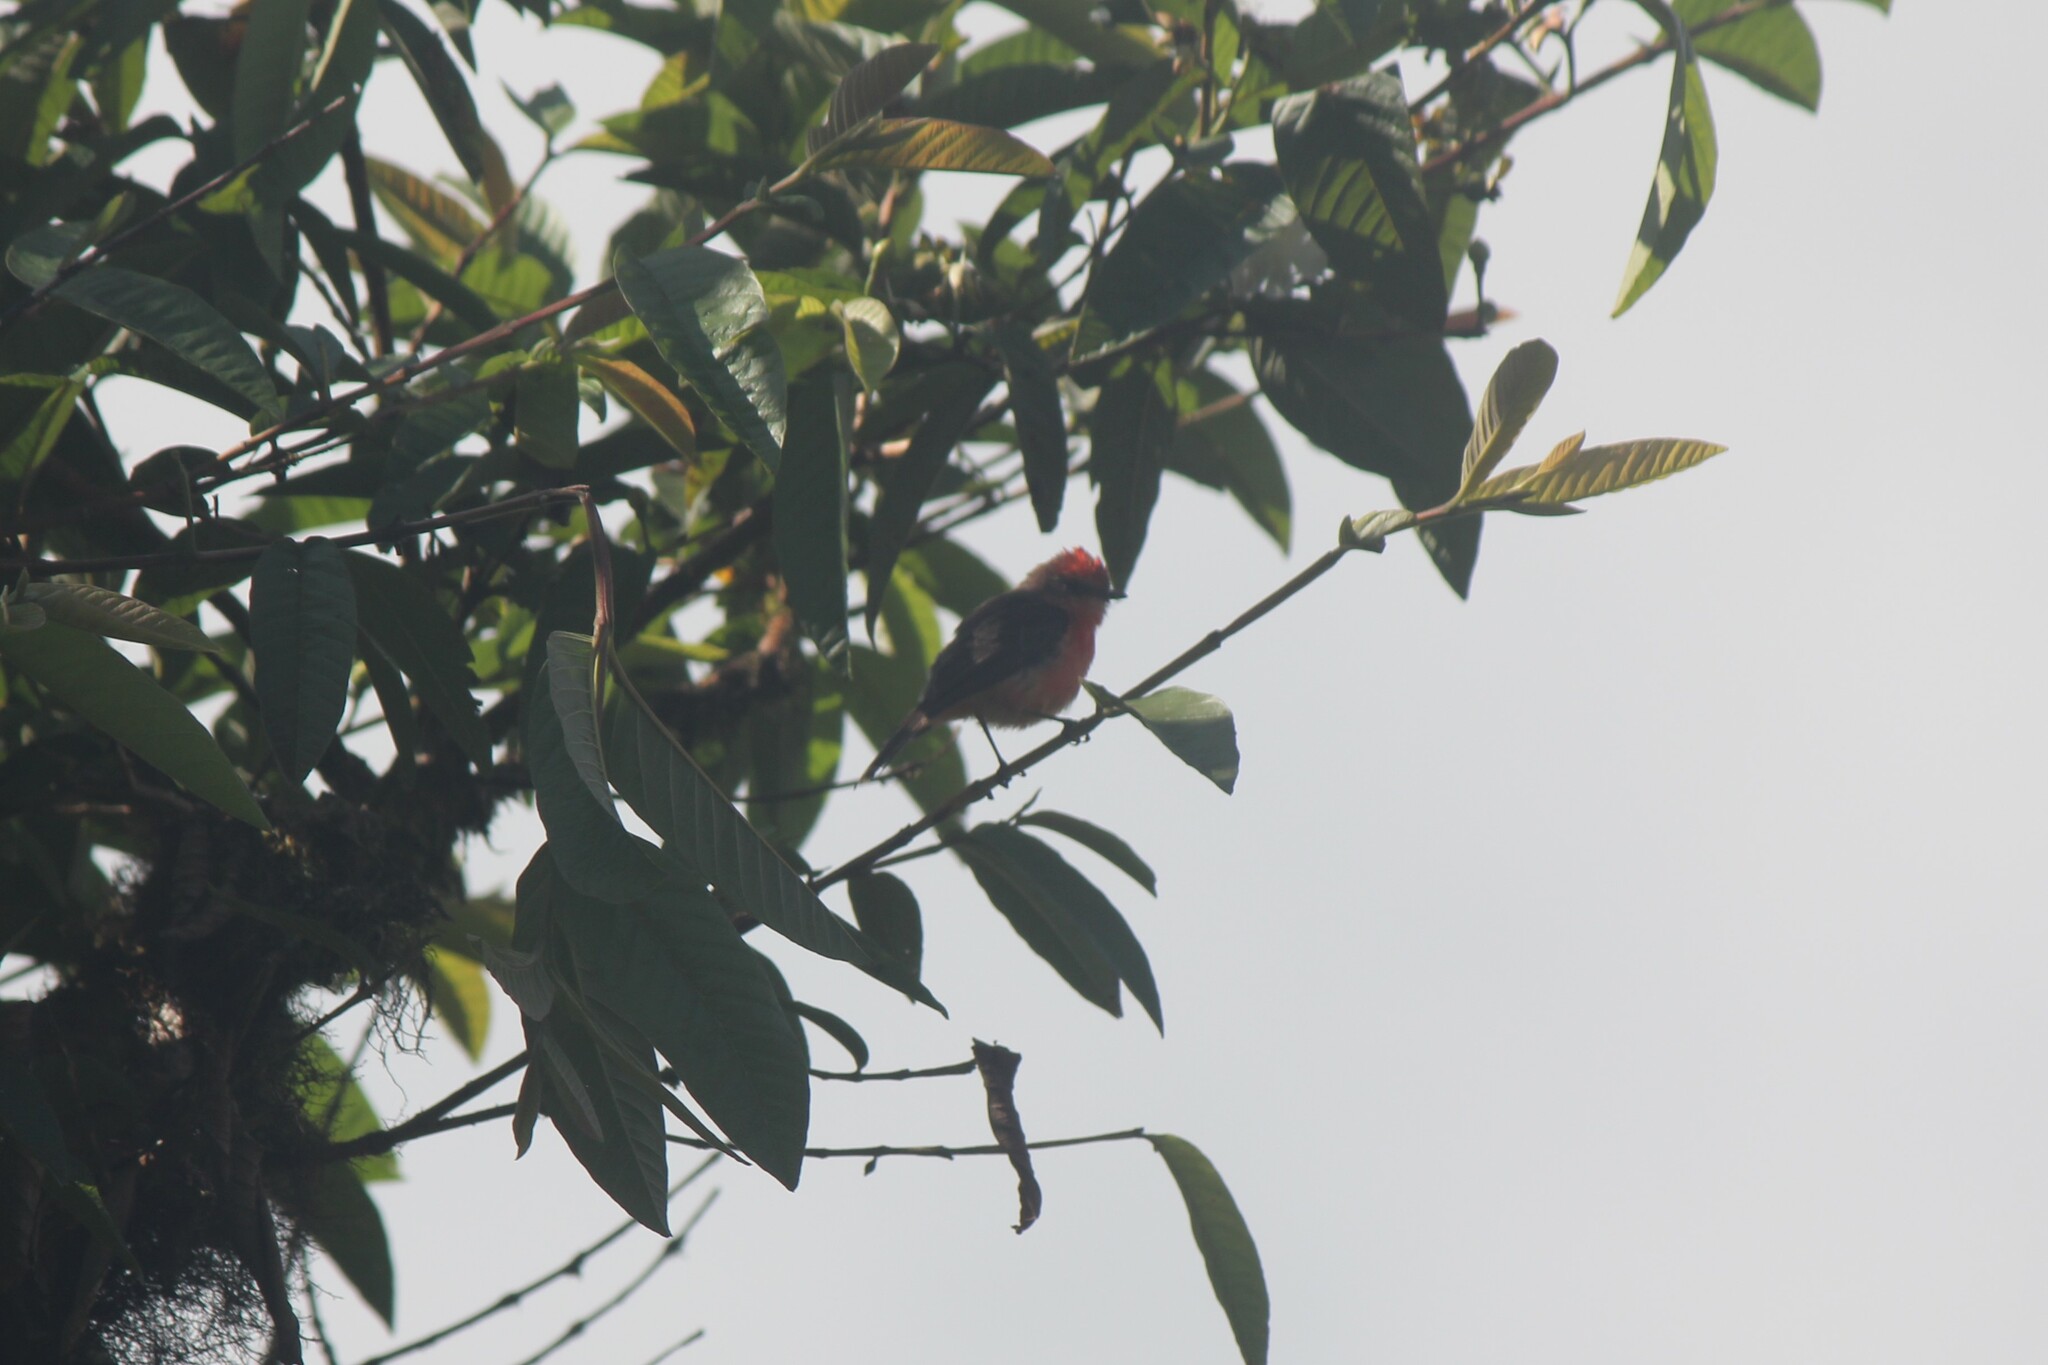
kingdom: Animalia
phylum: Chordata
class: Aves
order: Passeriformes
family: Tyrannidae
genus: Pyrocephalus
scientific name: Pyrocephalus rubinus
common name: Vermilion flycatcher
